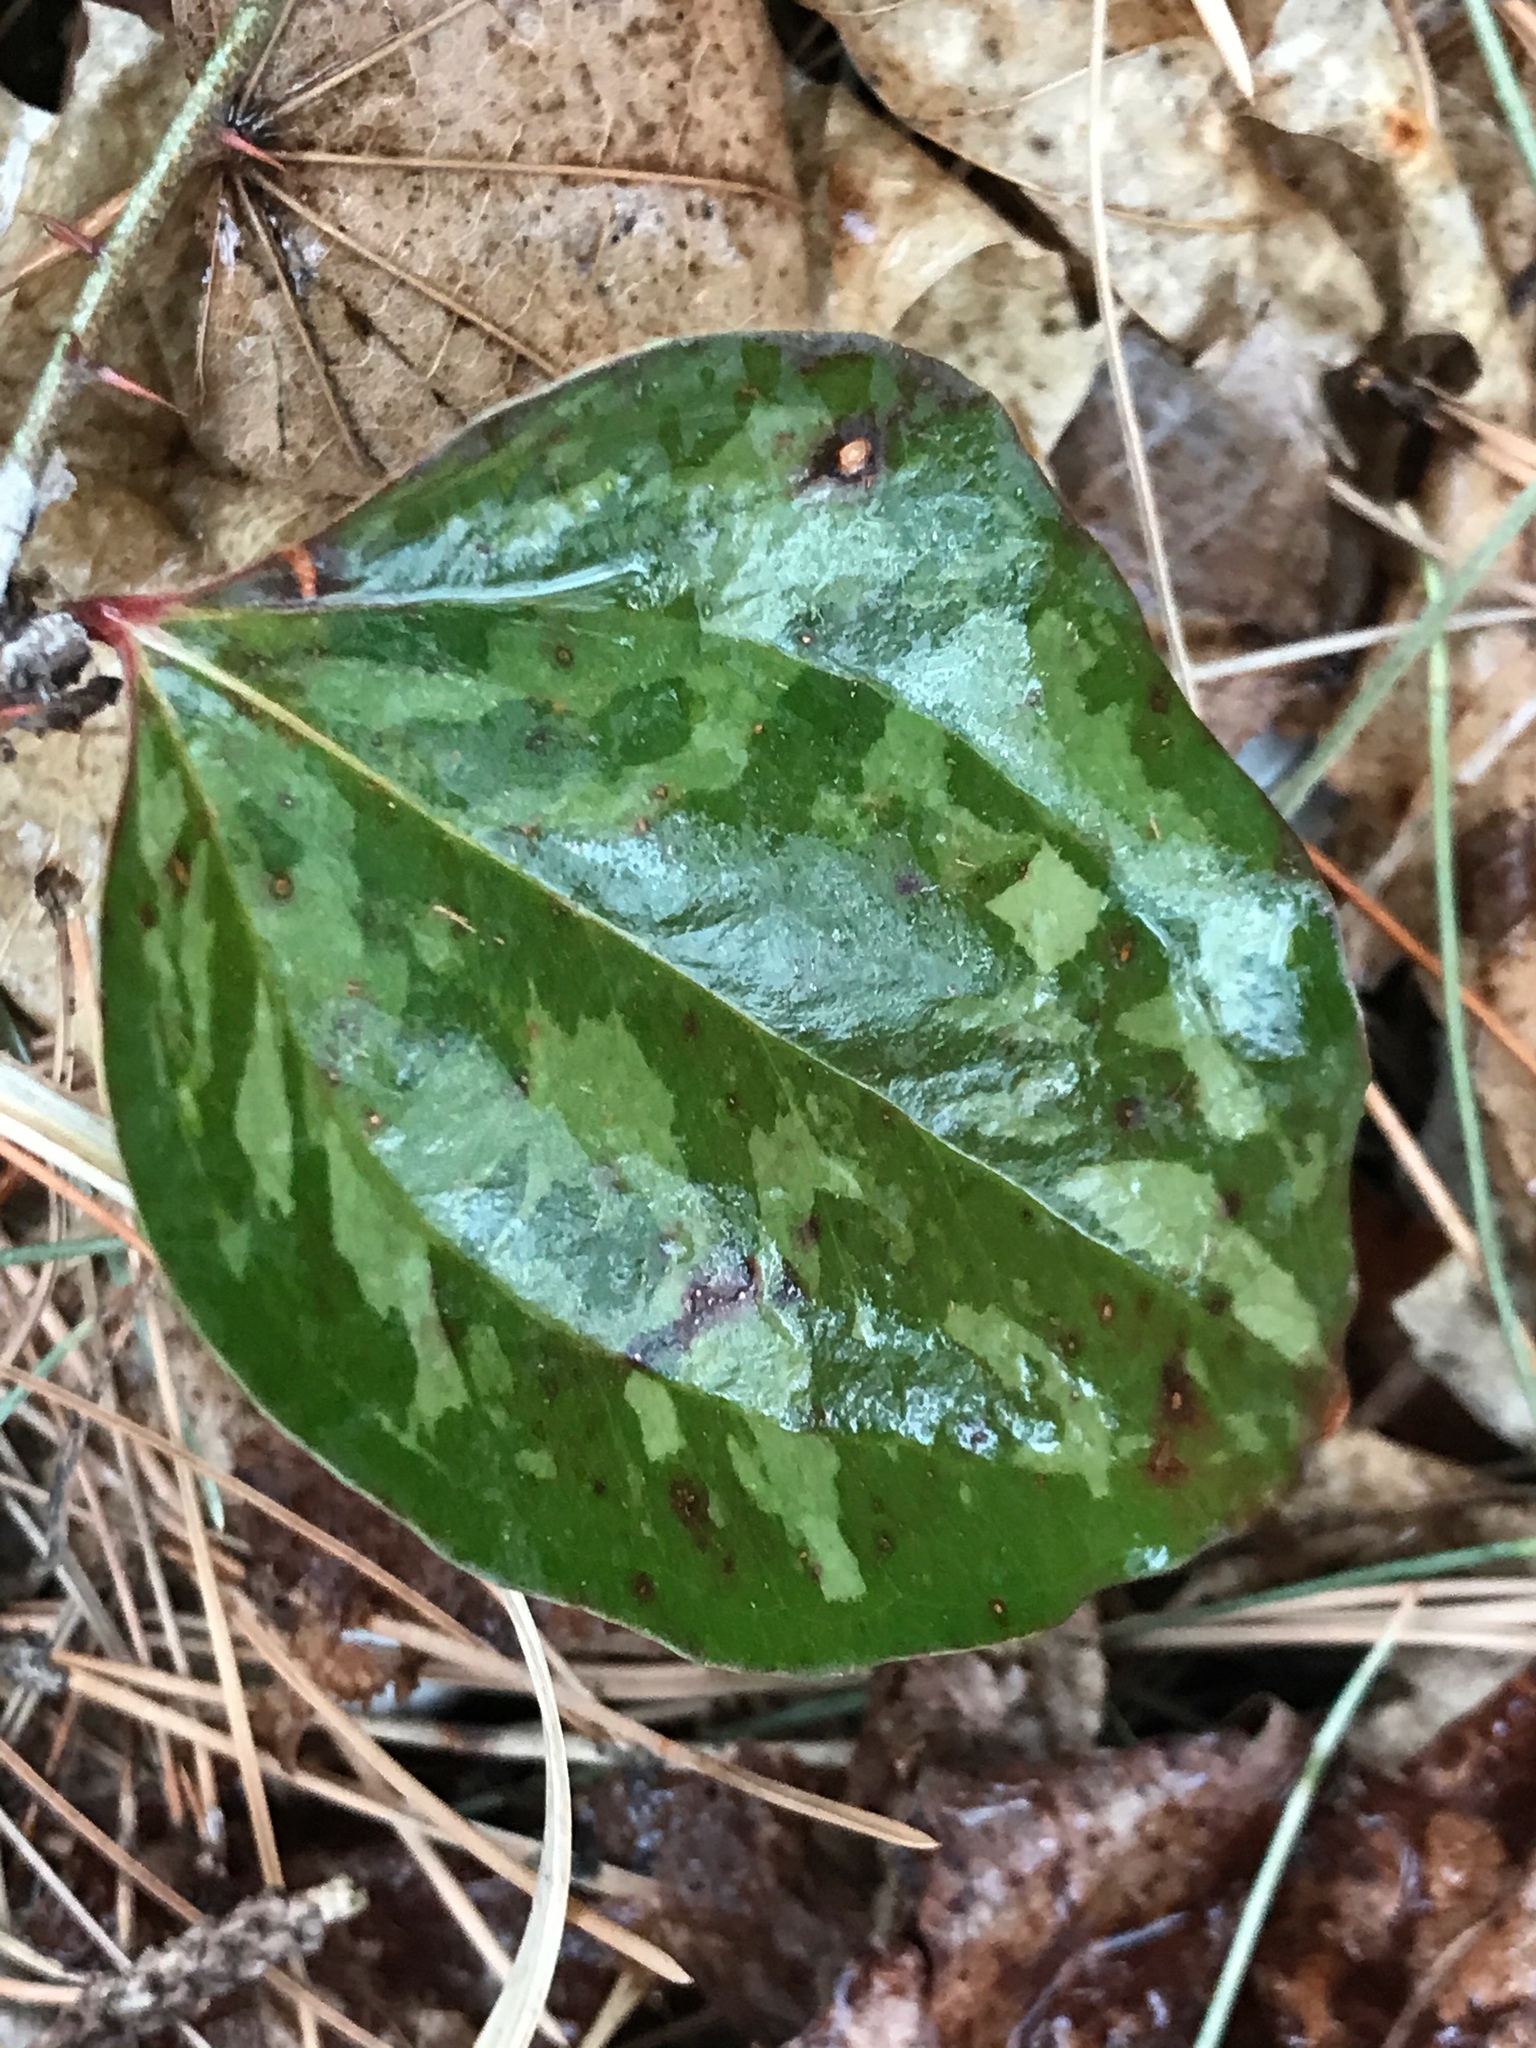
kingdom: Plantae
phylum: Tracheophyta
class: Liliopsida
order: Liliales
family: Smilacaceae
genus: Smilax
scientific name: Smilax glauca
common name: Cat greenbrier
